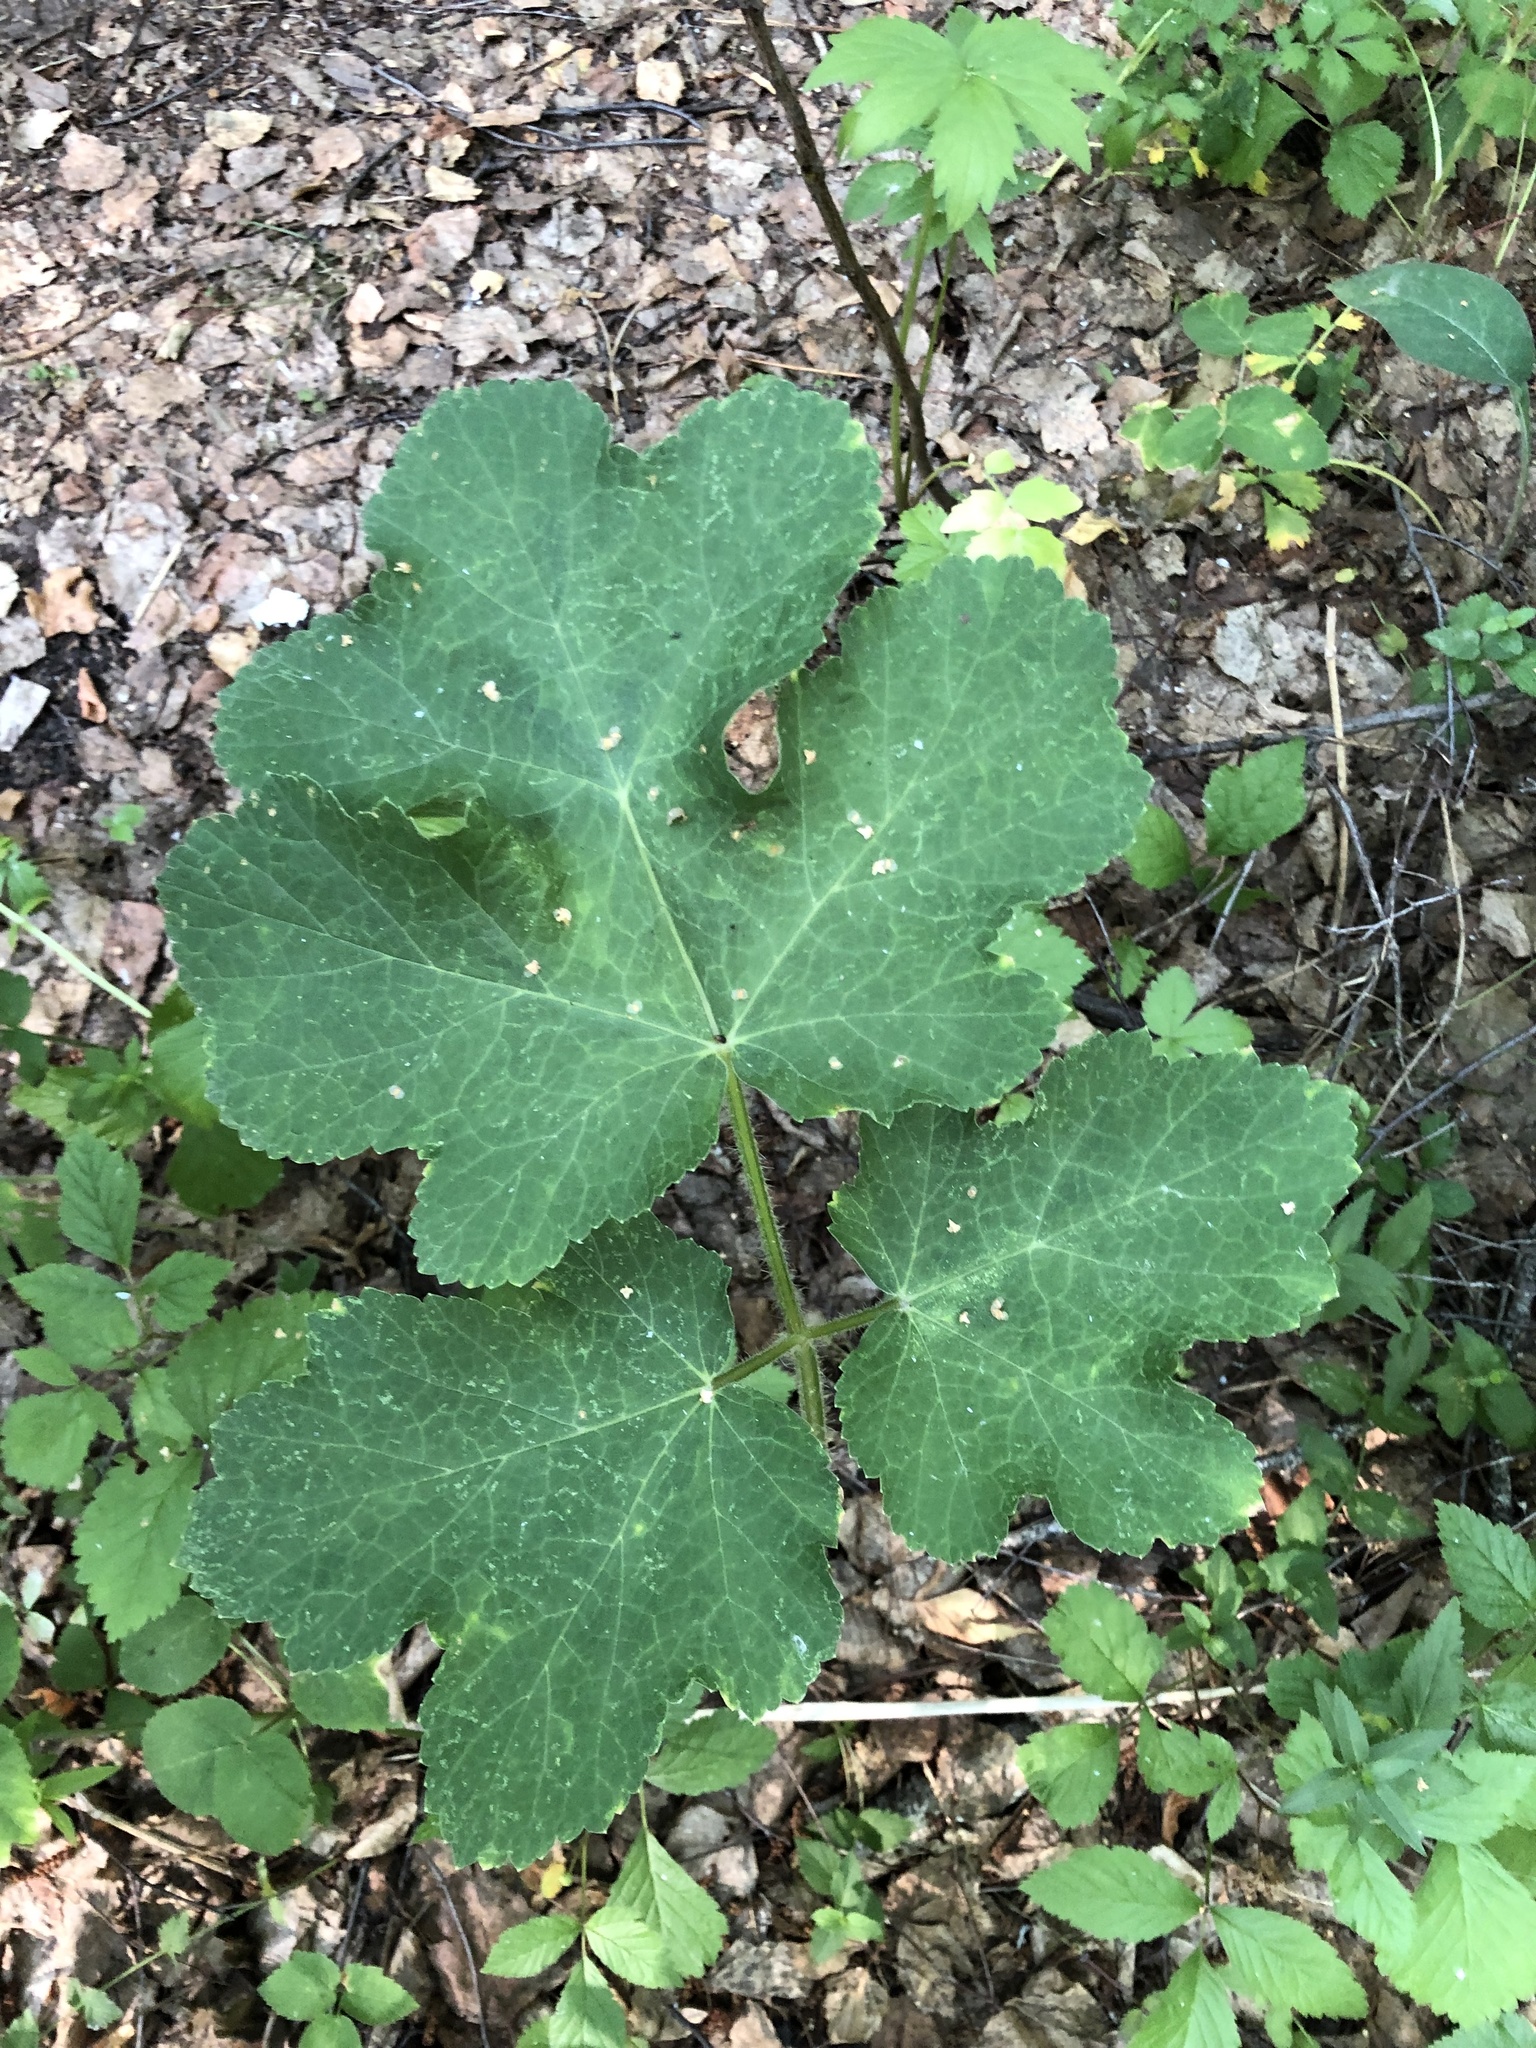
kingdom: Plantae
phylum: Tracheophyta
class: Magnoliopsida
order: Apiales
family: Apiaceae
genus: Heracleum
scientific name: Heracleum sphondylium
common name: Hogweed
